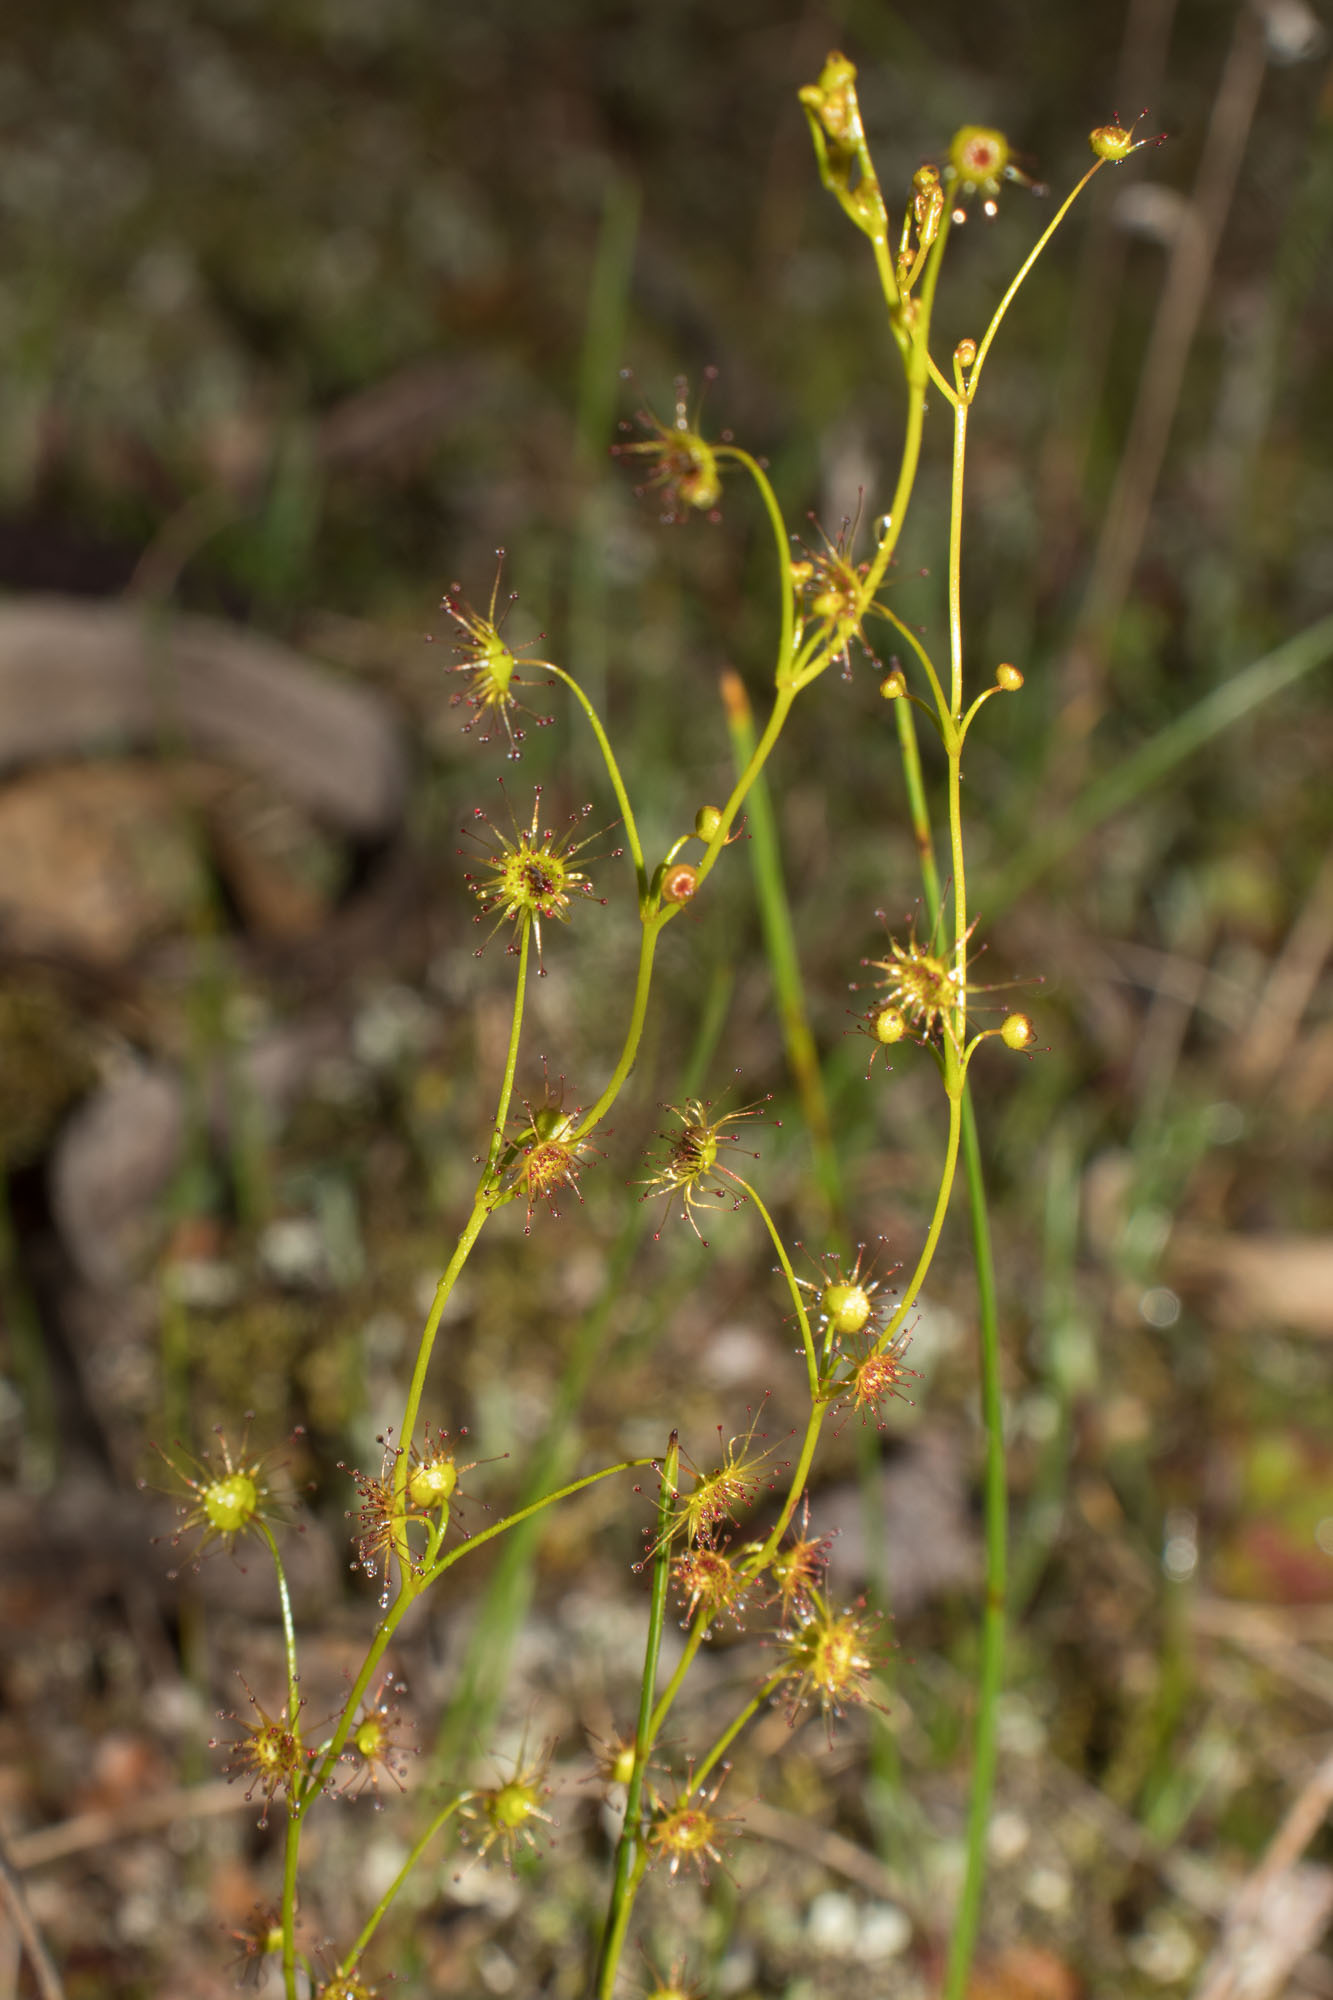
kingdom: Plantae
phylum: Tracheophyta
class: Magnoliopsida
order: Caryophyllales
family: Droseraceae
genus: Drosera
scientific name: Drosera intricata
